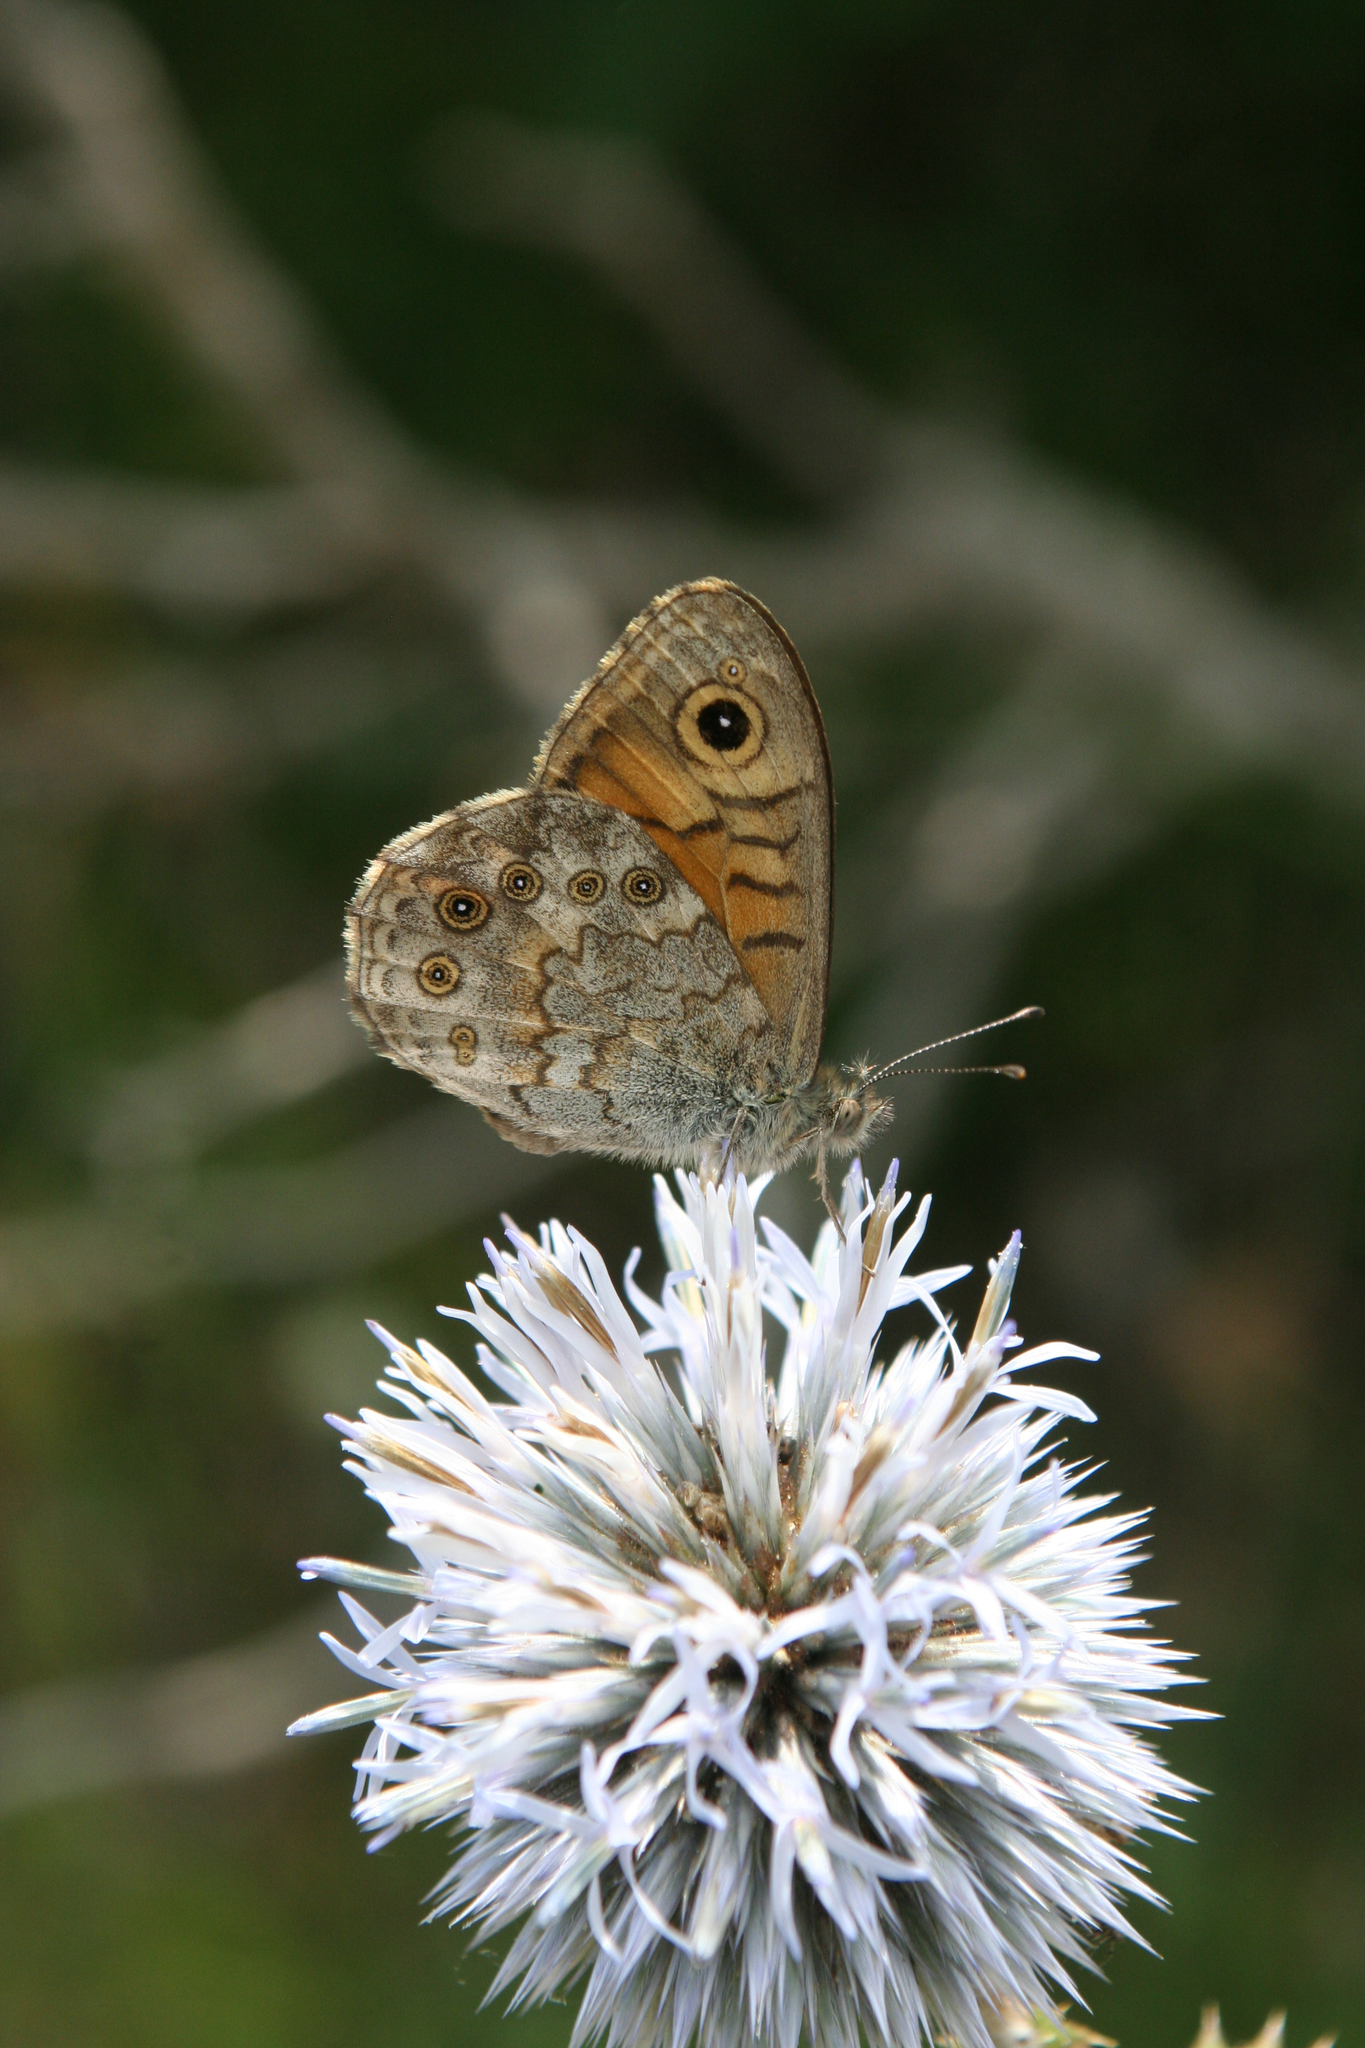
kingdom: Plantae
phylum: Tracheophyta
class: Magnoliopsida
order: Asterales
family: Asteraceae
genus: Echinops
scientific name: Echinops sphaerocephalus
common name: Glandular globe-thistle
